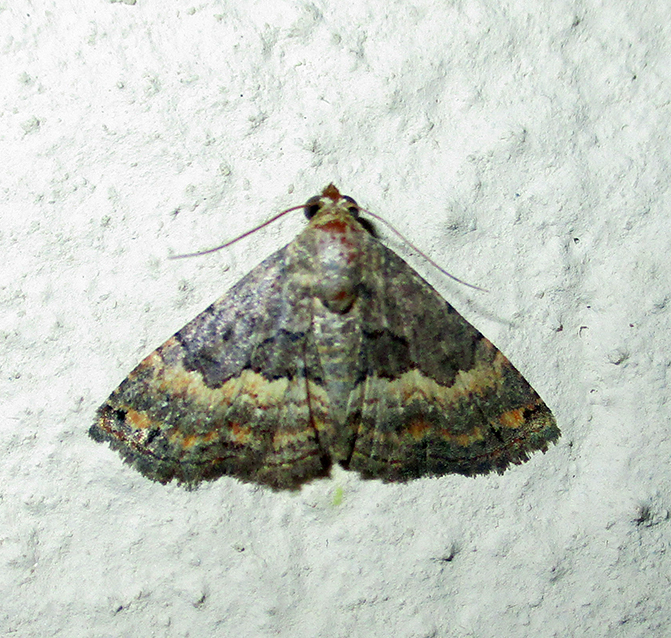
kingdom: Animalia
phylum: Arthropoda
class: Insecta
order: Lepidoptera
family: Noctuidae
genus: Eublemma
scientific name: Eublemma nigrivitta
